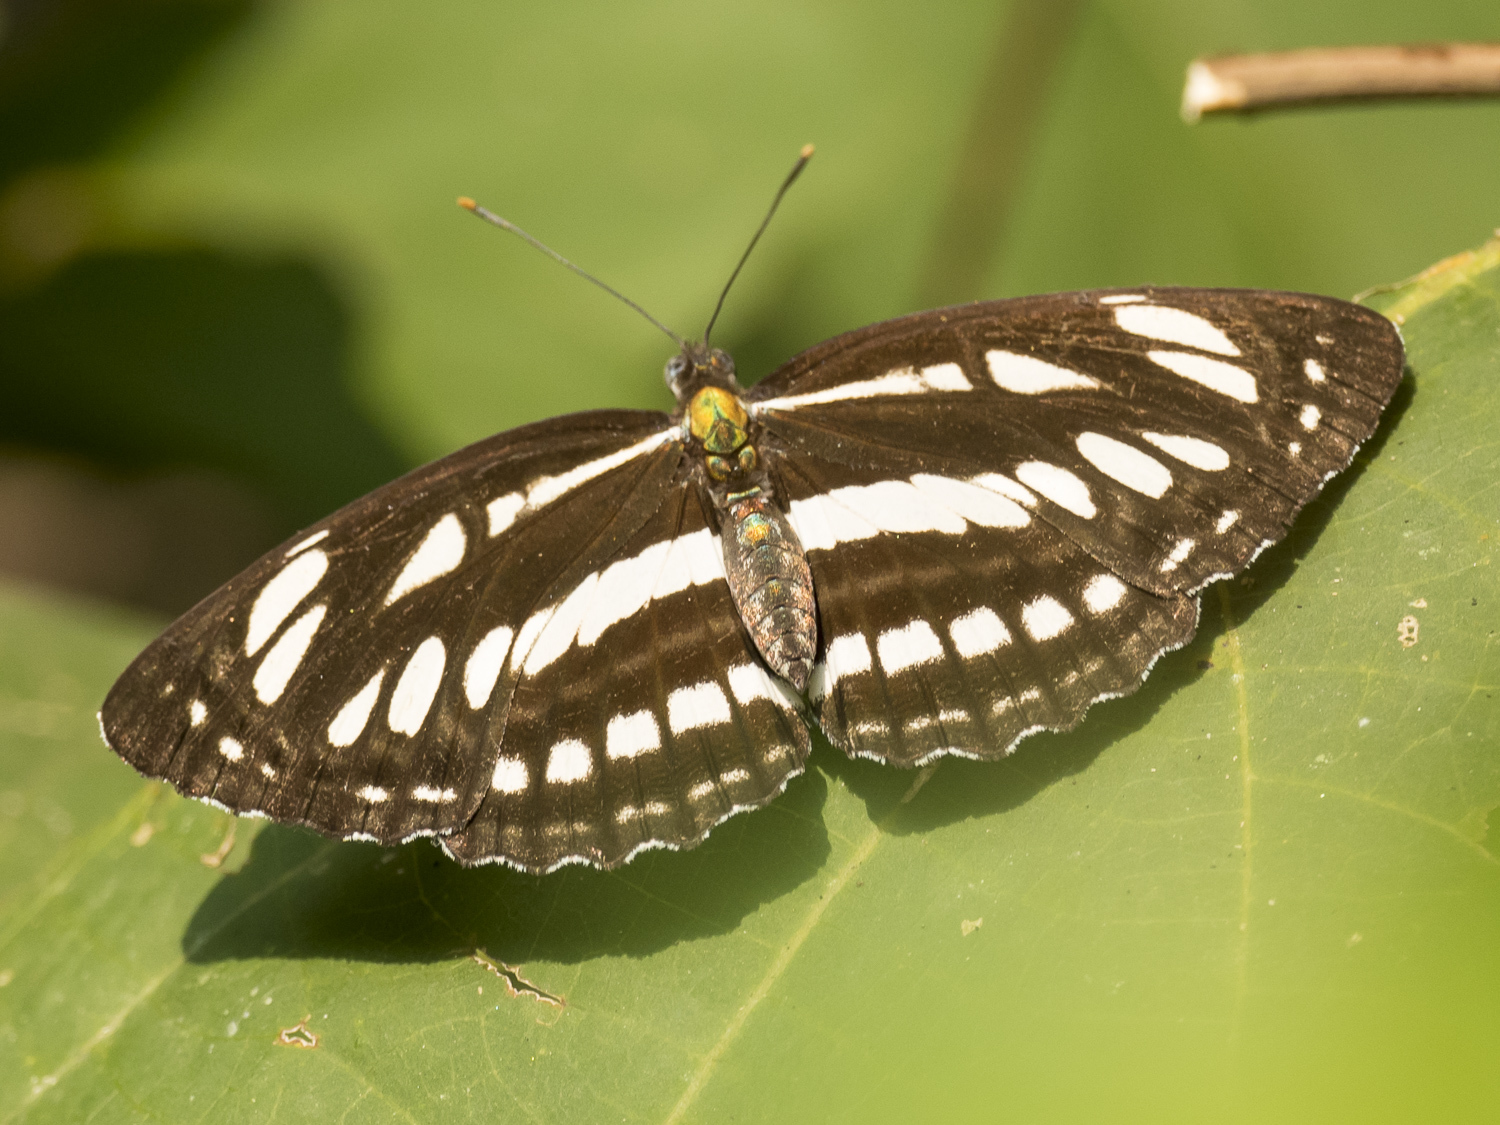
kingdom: Animalia
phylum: Arthropoda
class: Insecta
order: Lepidoptera
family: Nymphalidae
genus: Neptis
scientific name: Neptis hylas
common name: Common sailer
